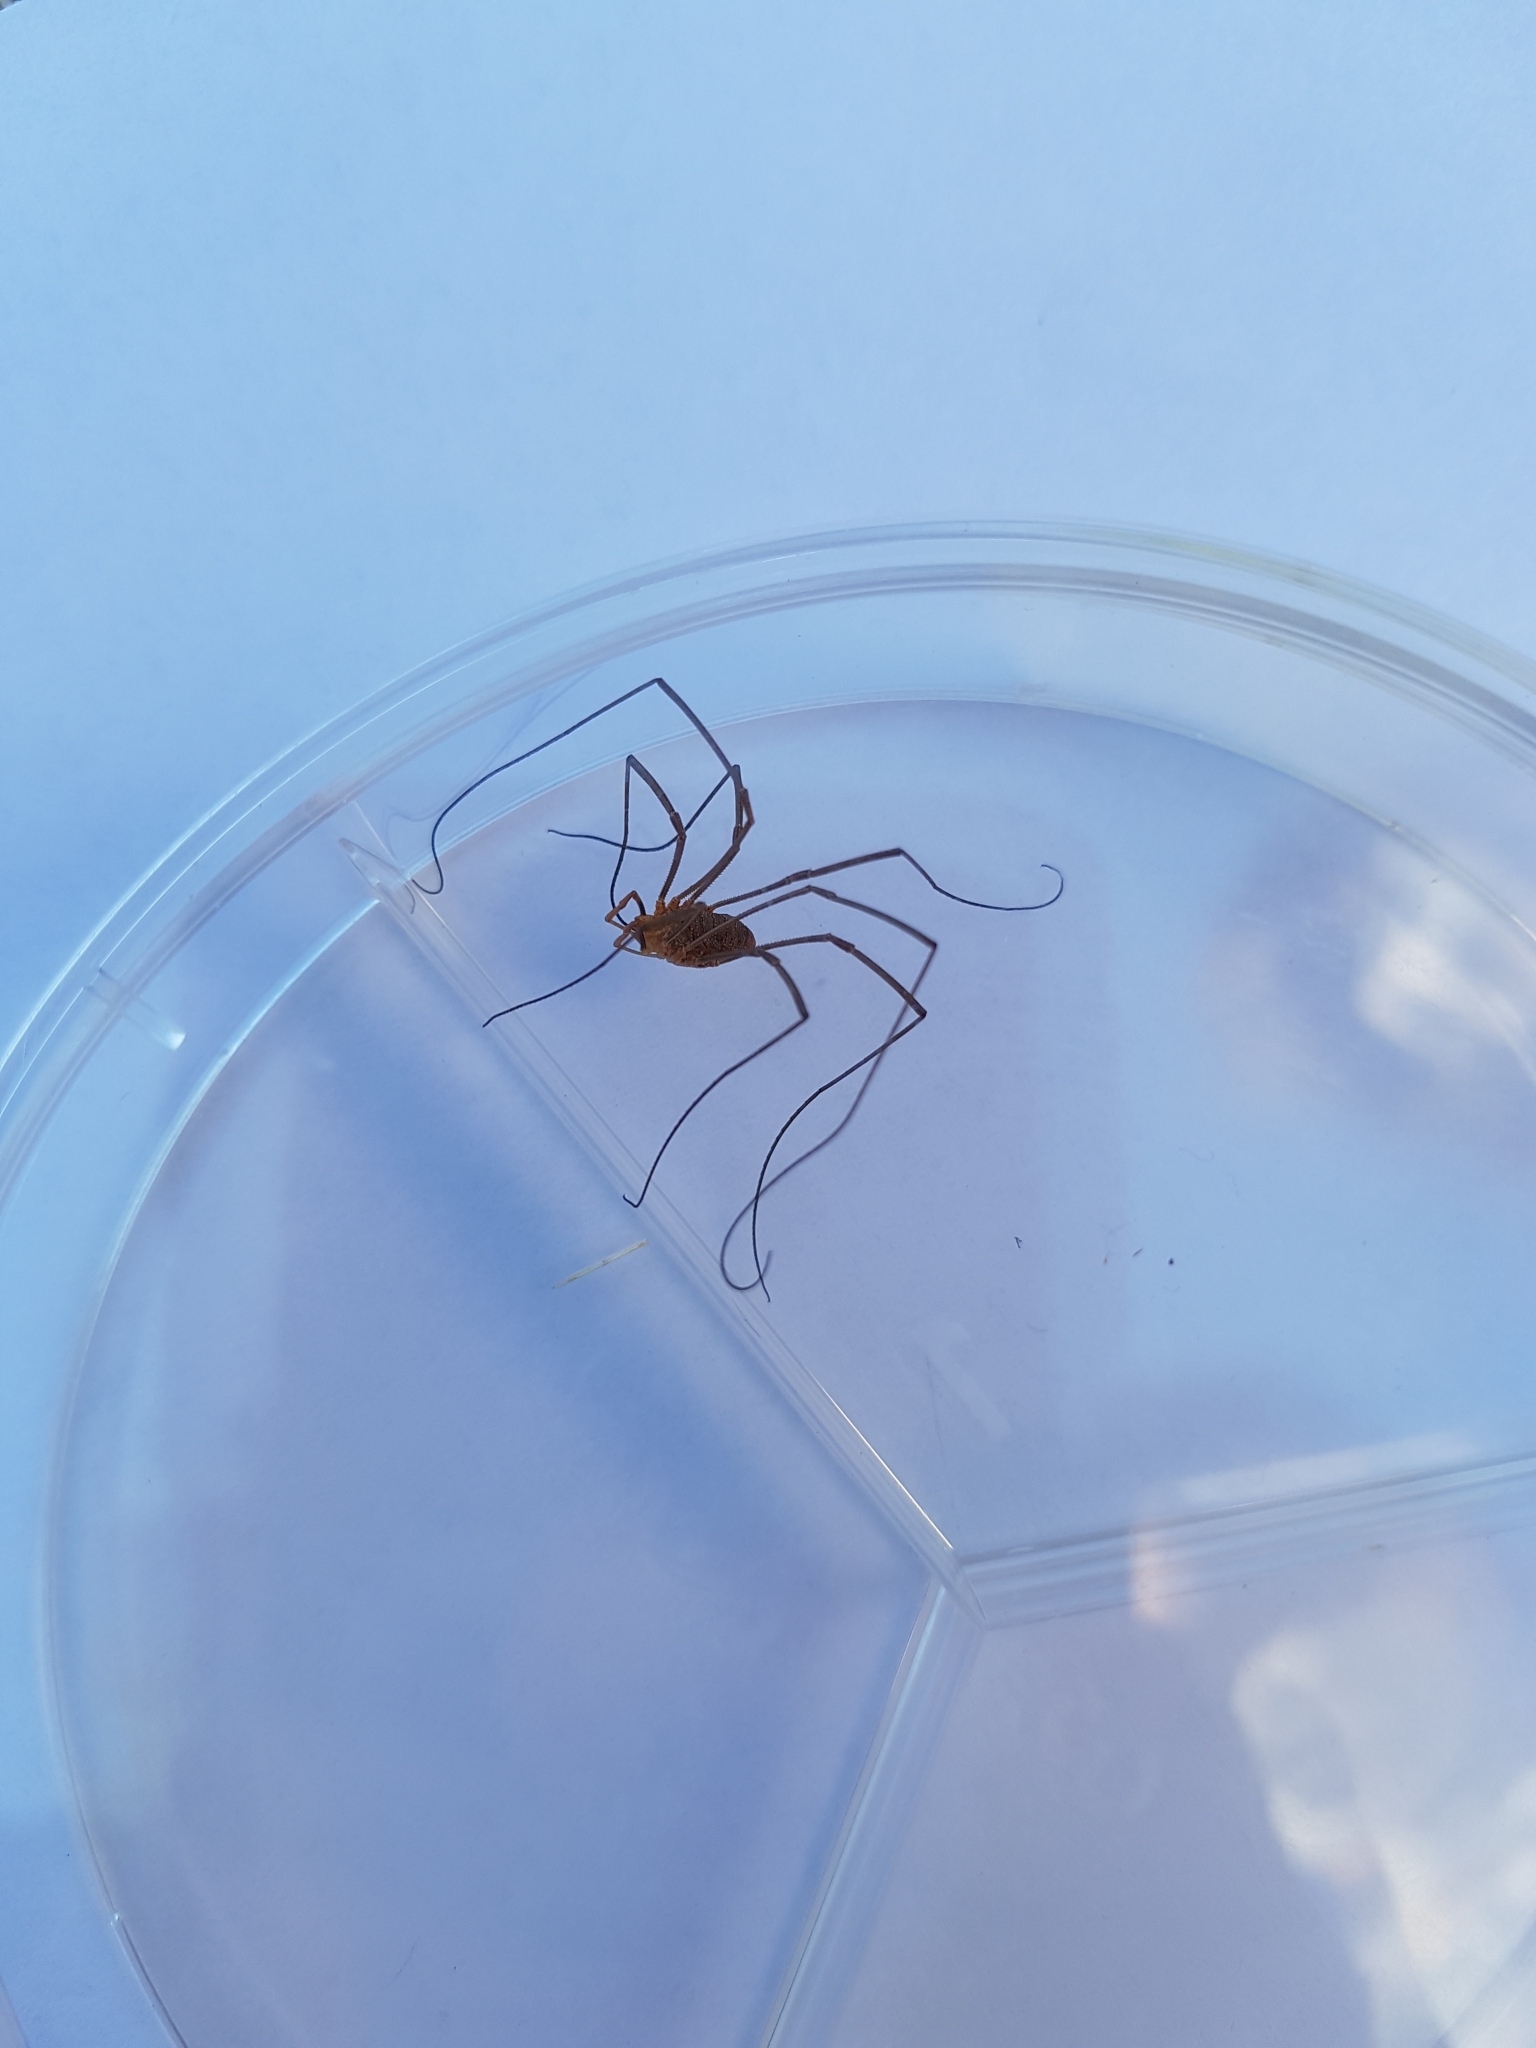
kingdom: Animalia
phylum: Arthropoda
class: Arachnida
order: Opiliones
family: Phalangiidae
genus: Phalangium
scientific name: Phalangium opilio
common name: Daddy longleg
